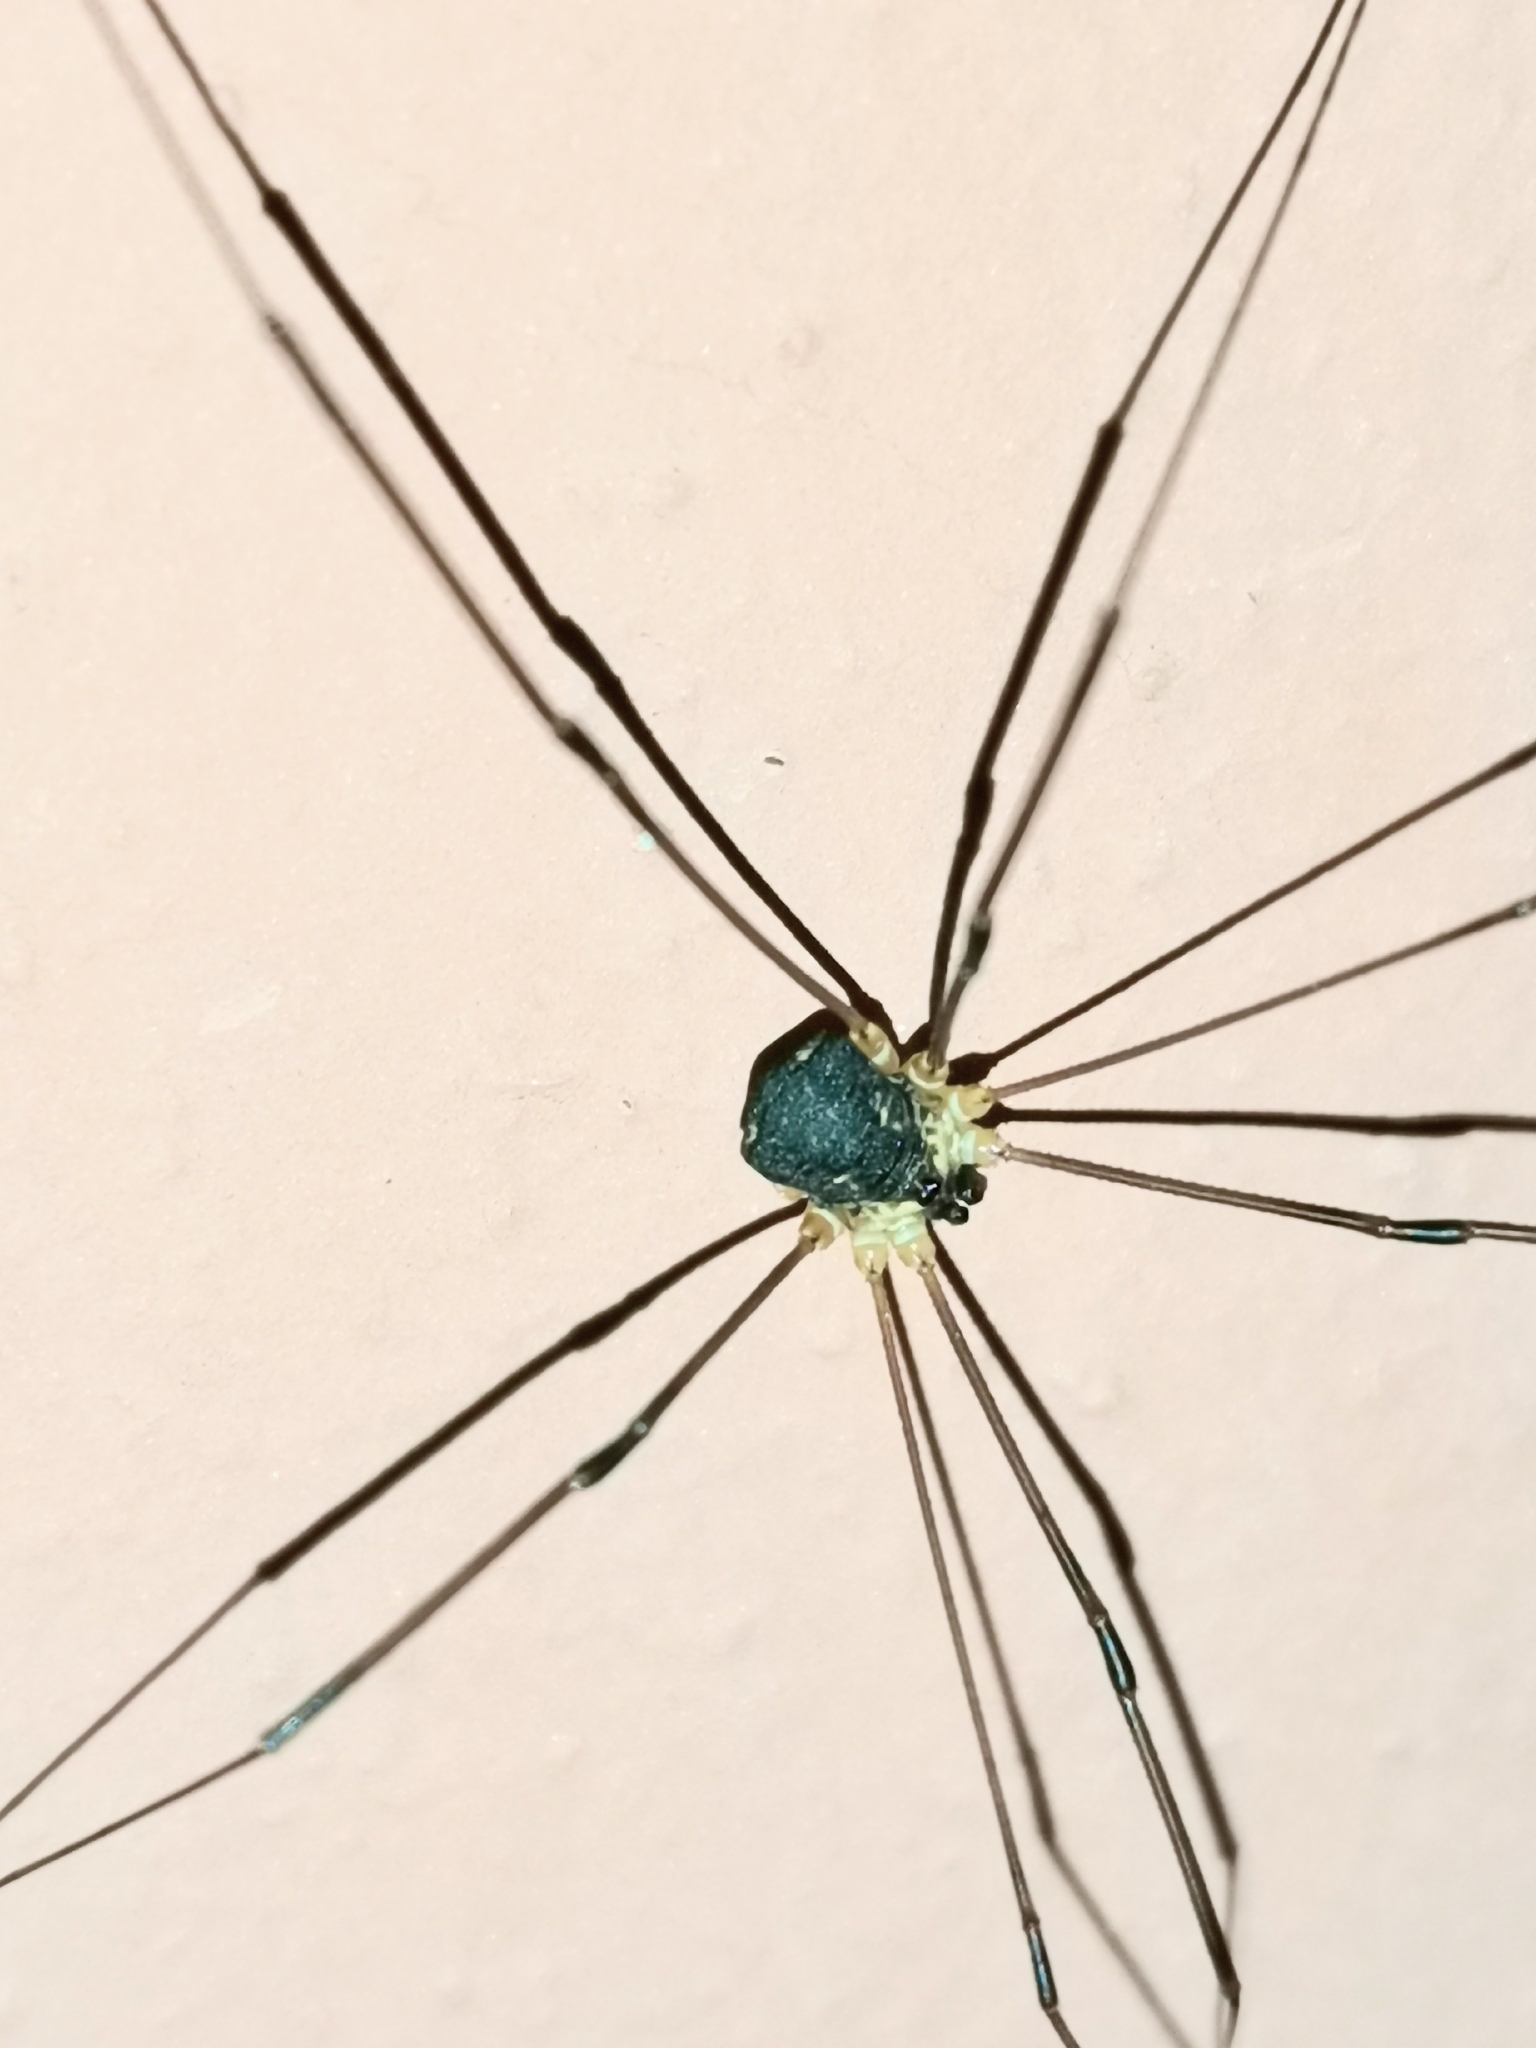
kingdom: Animalia
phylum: Arthropoda
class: Arachnida
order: Opiliones
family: Sclerosomatidae
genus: Leiobunum
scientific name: Leiobunum gracile
